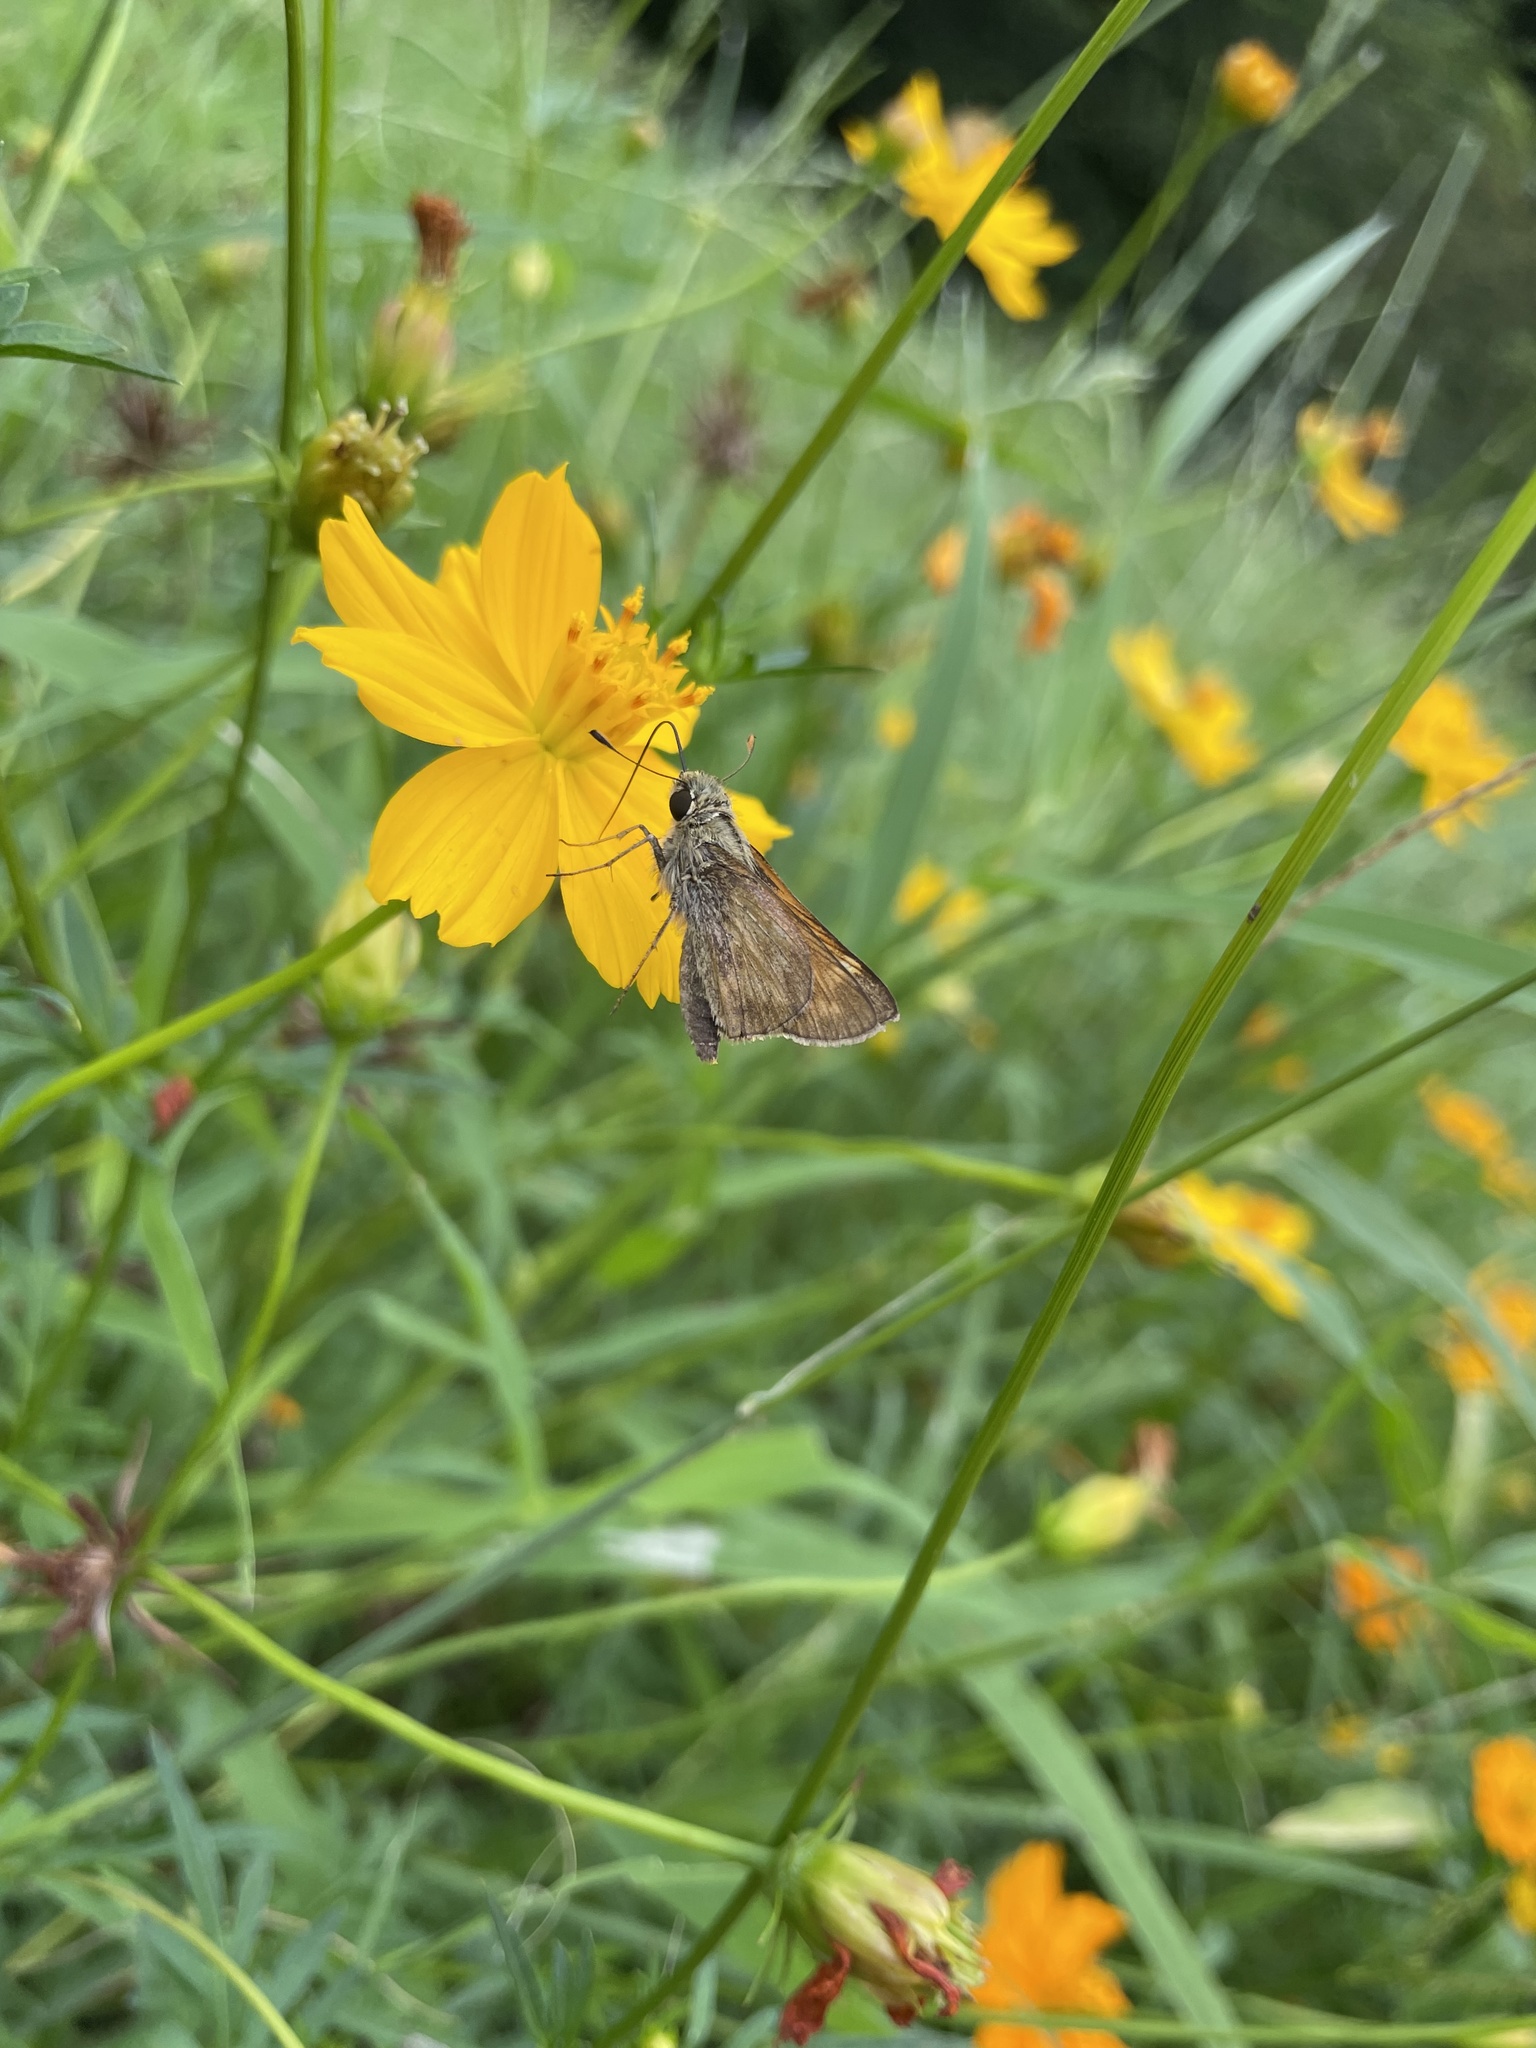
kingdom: Animalia
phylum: Arthropoda
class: Insecta
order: Lepidoptera
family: Hesperiidae
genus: Atalopedes
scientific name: Atalopedes
